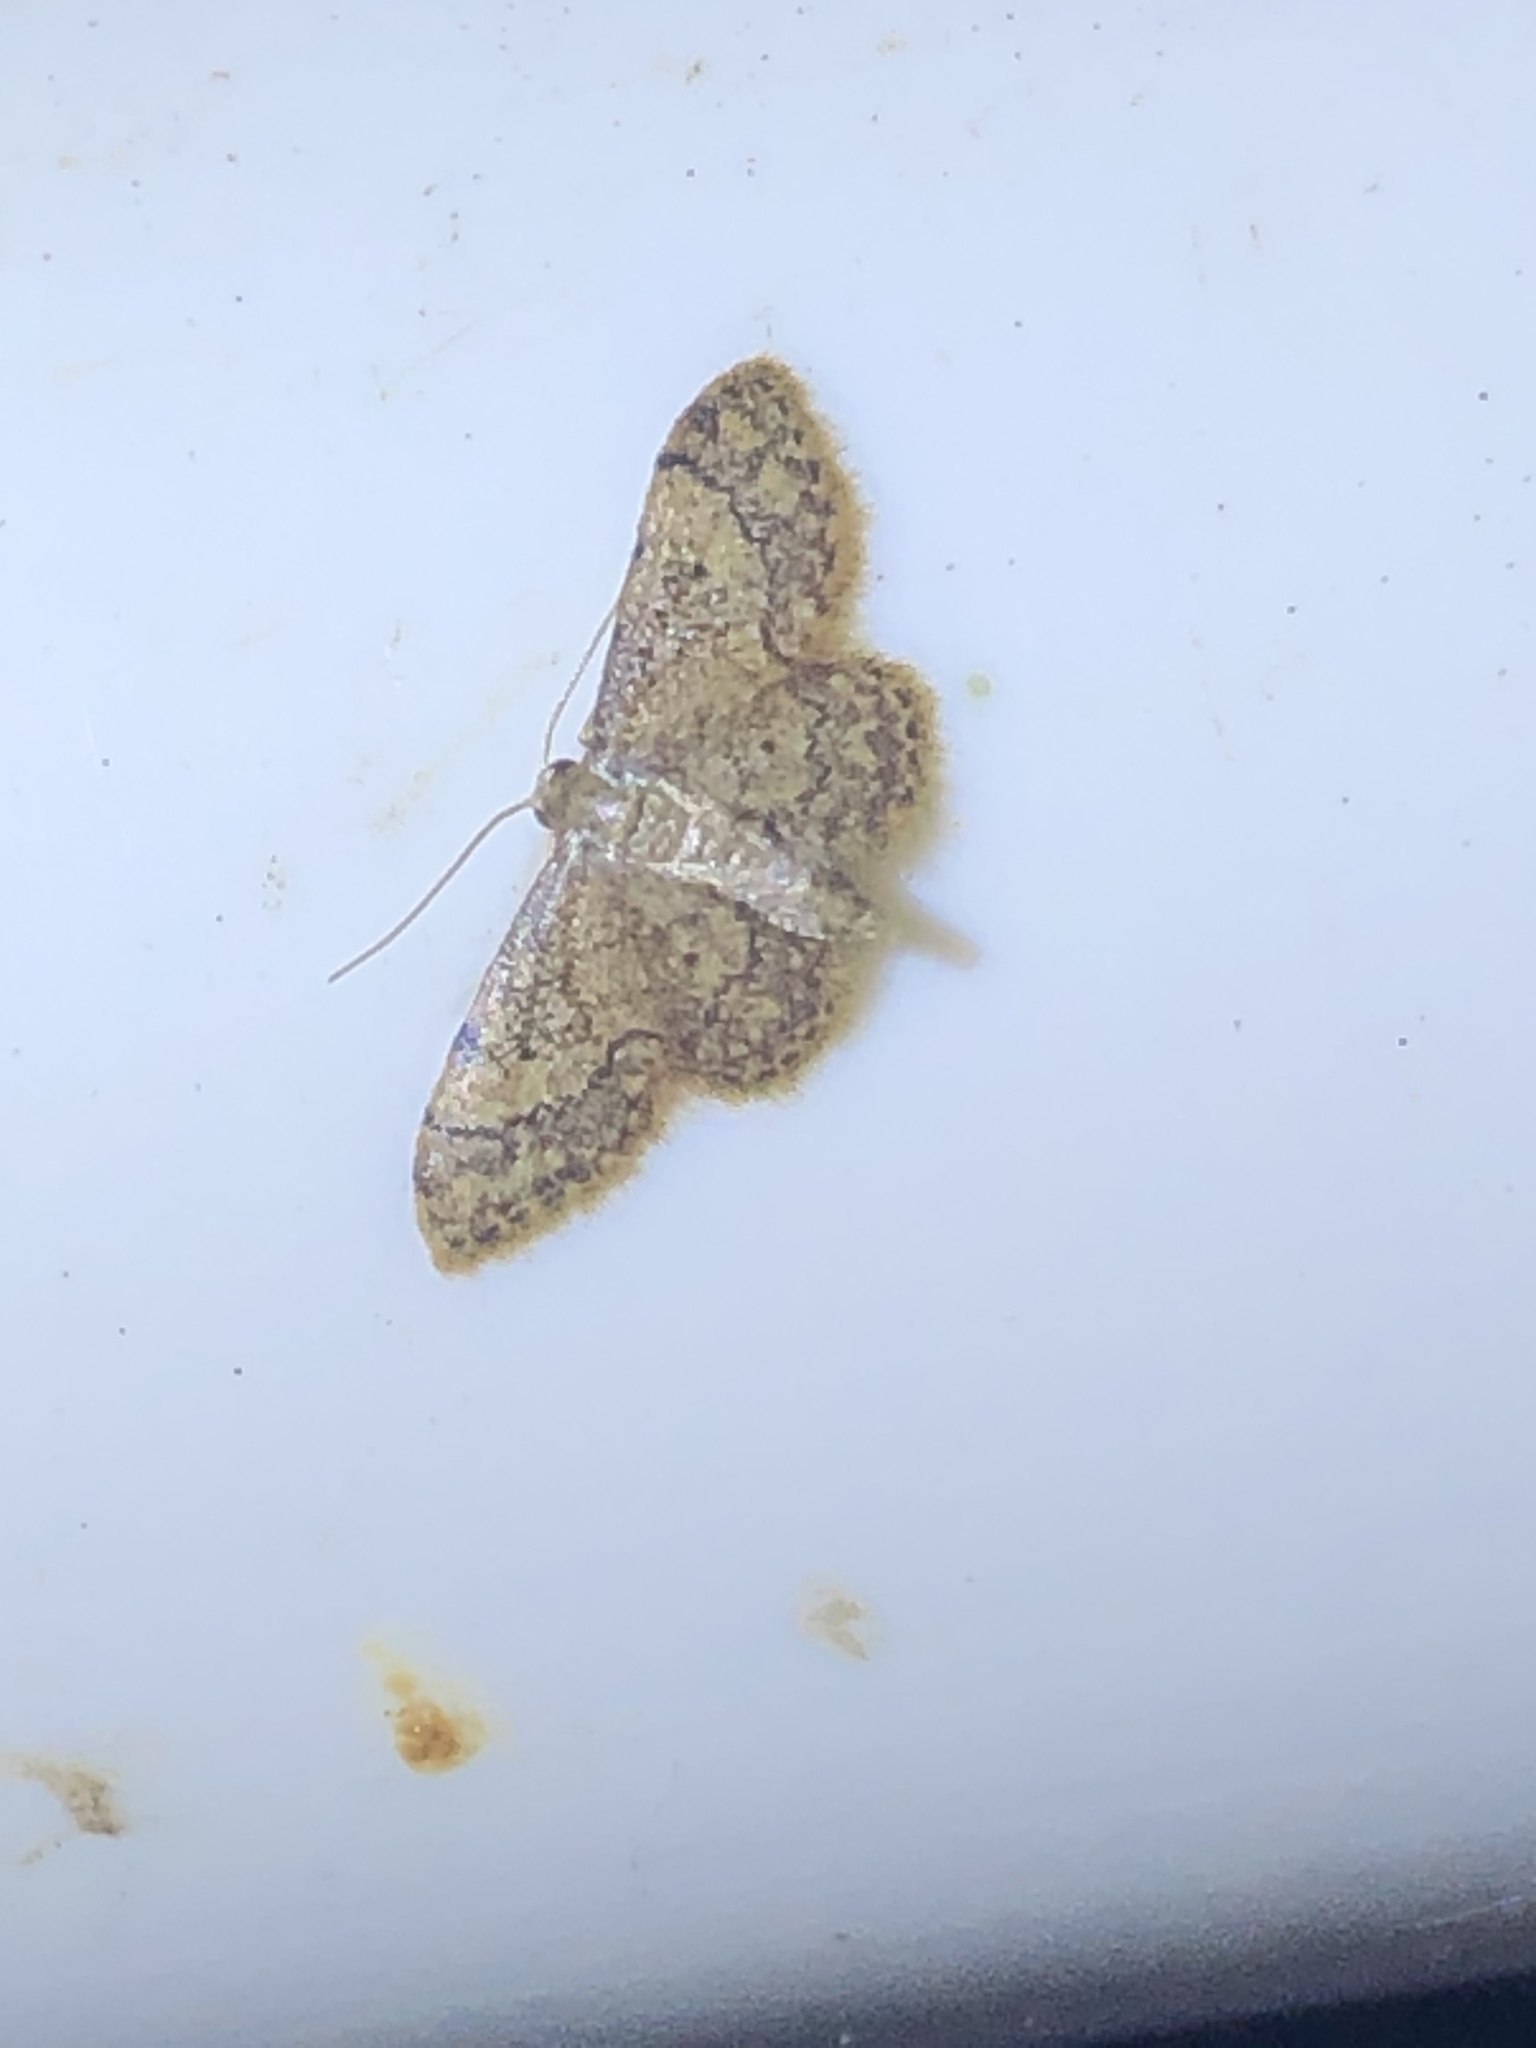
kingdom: Animalia
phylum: Arthropoda
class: Insecta
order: Lepidoptera
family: Geometridae
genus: Idaea
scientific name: Idaea celtima
